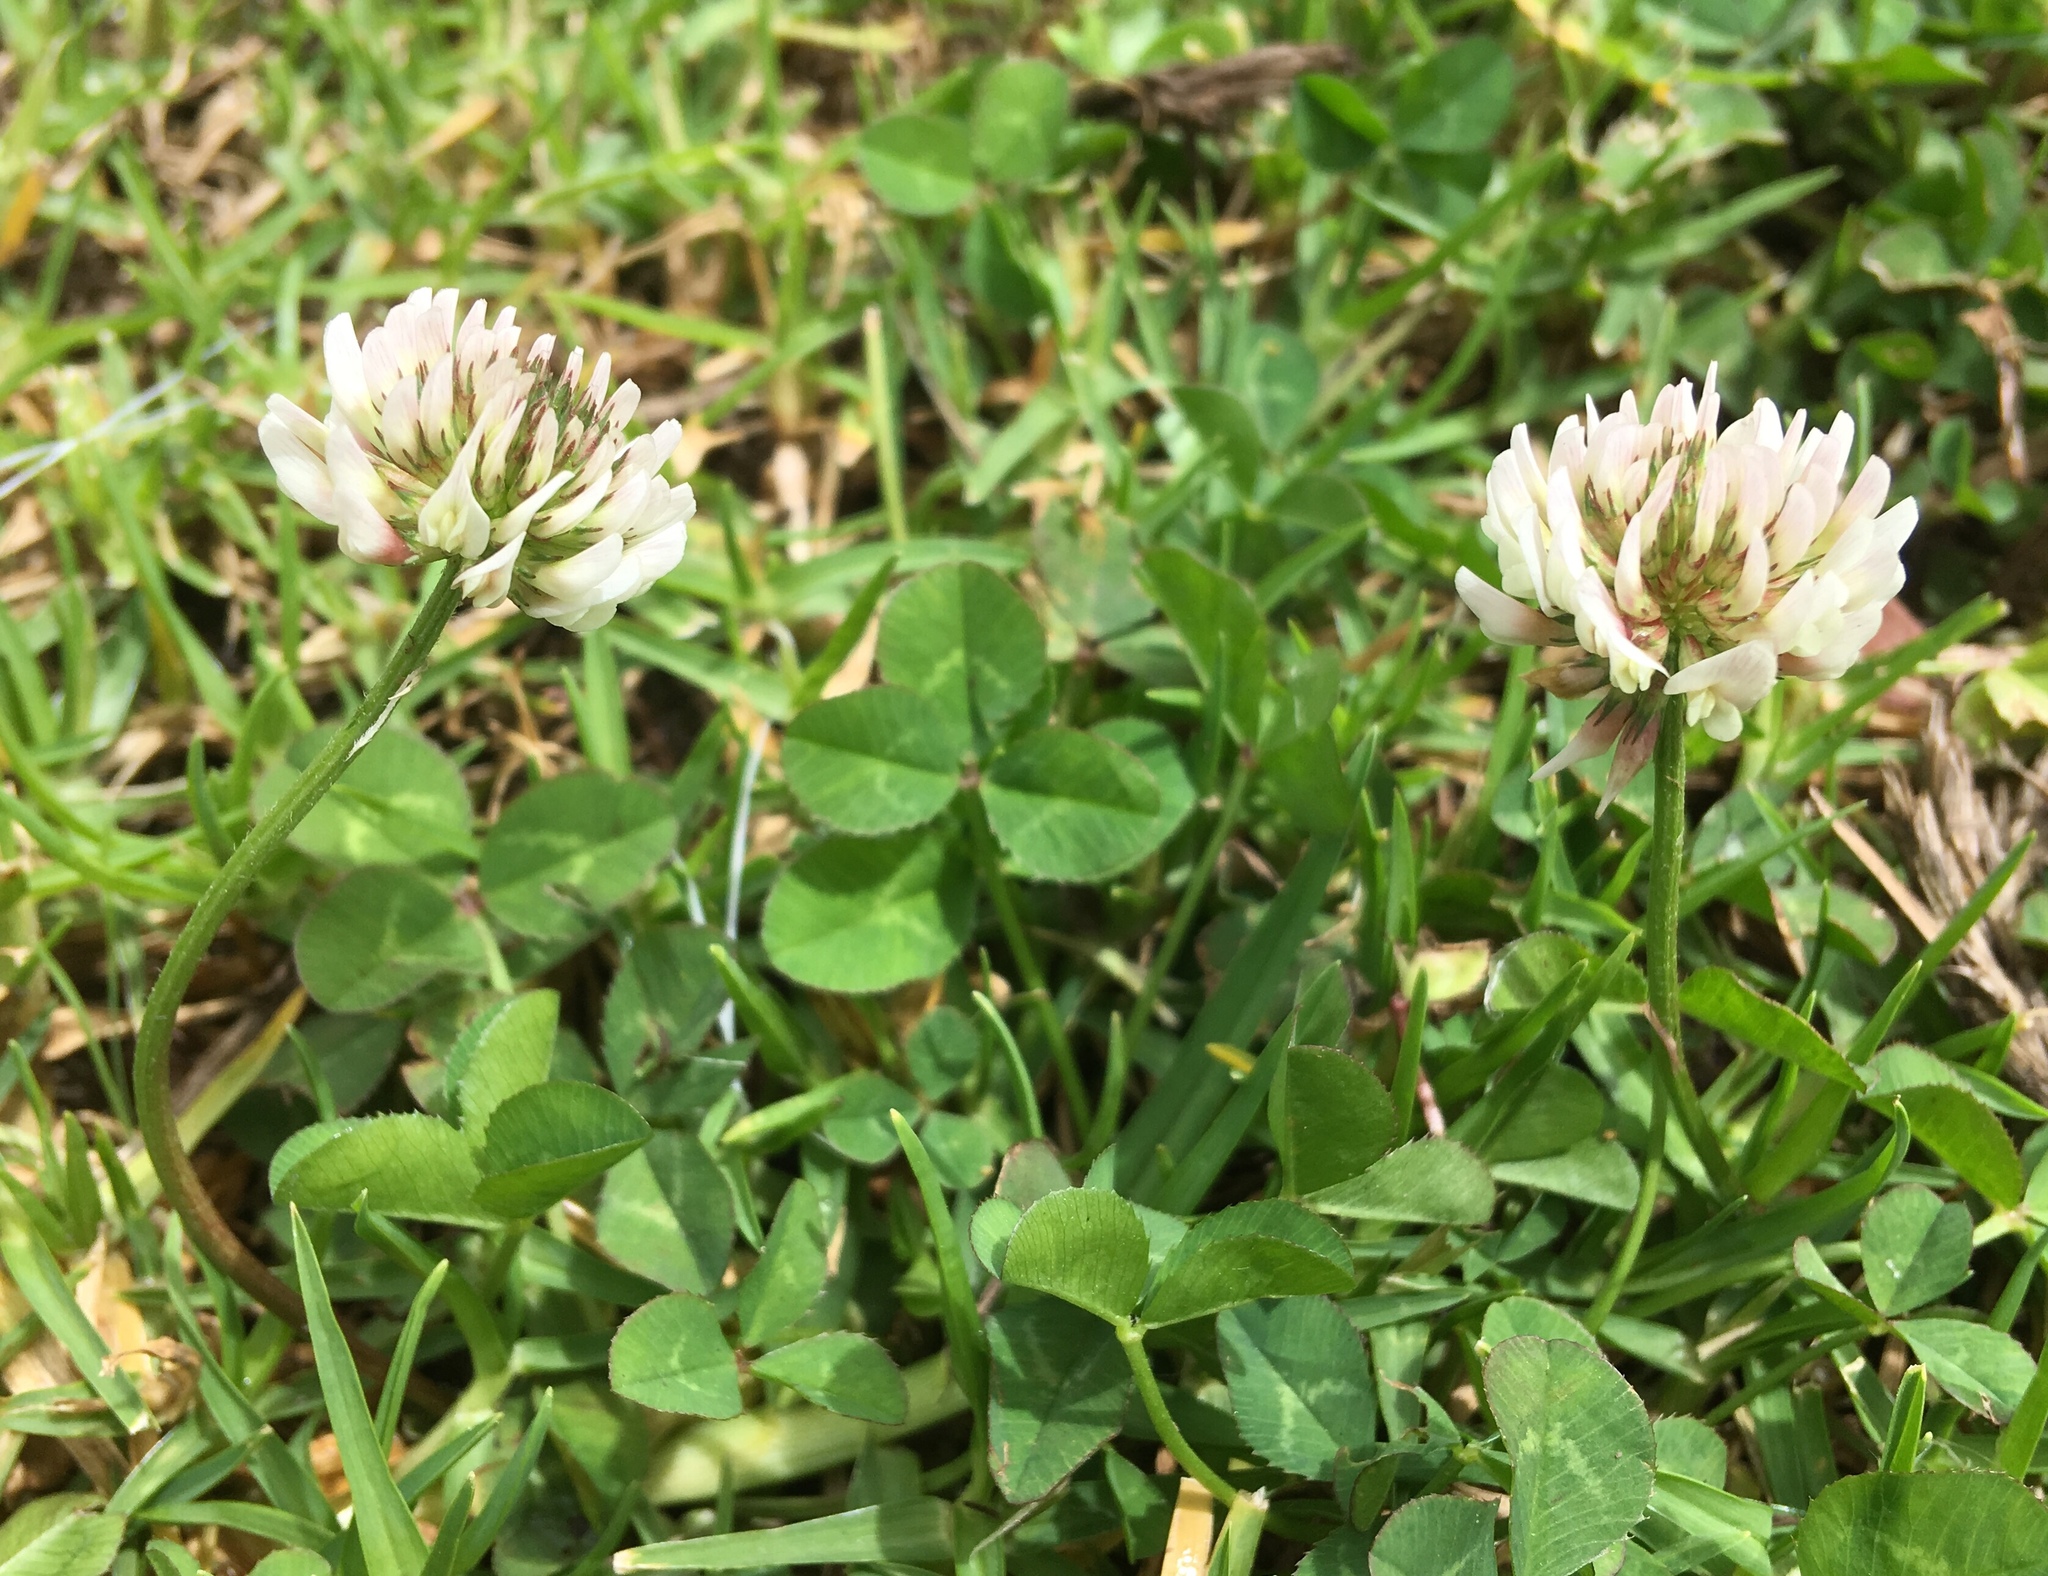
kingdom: Plantae
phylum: Tracheophyta
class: Magnoliopsida
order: Fabales
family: Fabaceae
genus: Trifolium
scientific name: Trifolium repens
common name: White clover
